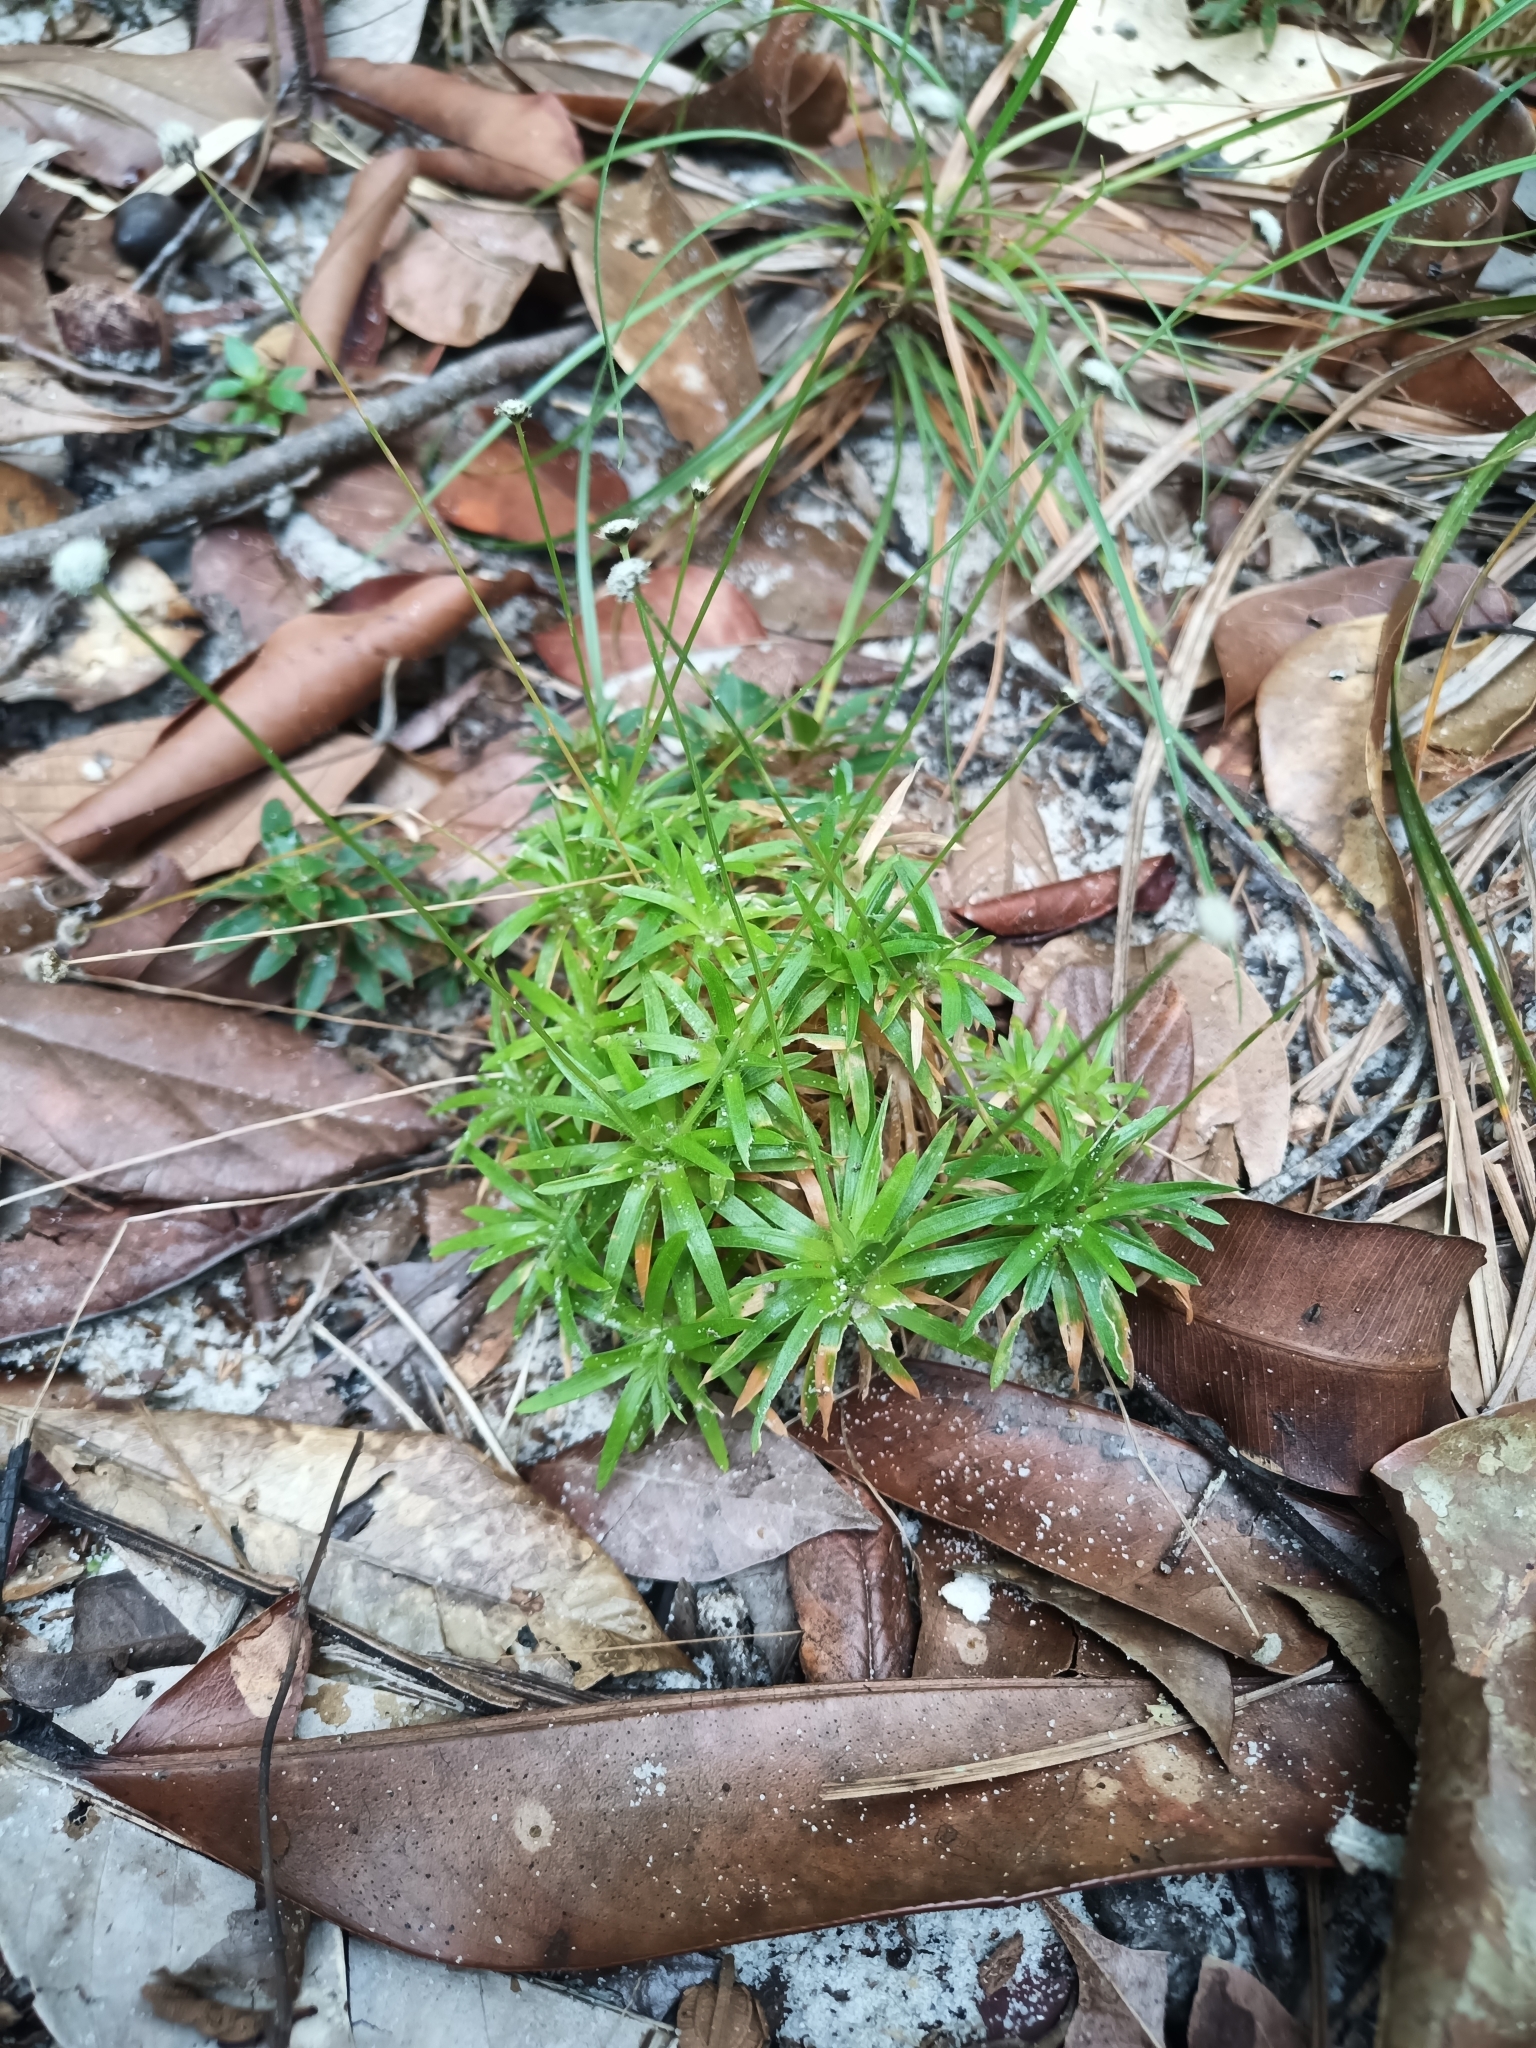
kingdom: Plantae
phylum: Tracheophyta
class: Liliopsida
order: Poales
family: Eriocaulaceae
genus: Paepalanthus
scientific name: Paepalanthus oyapockensis
